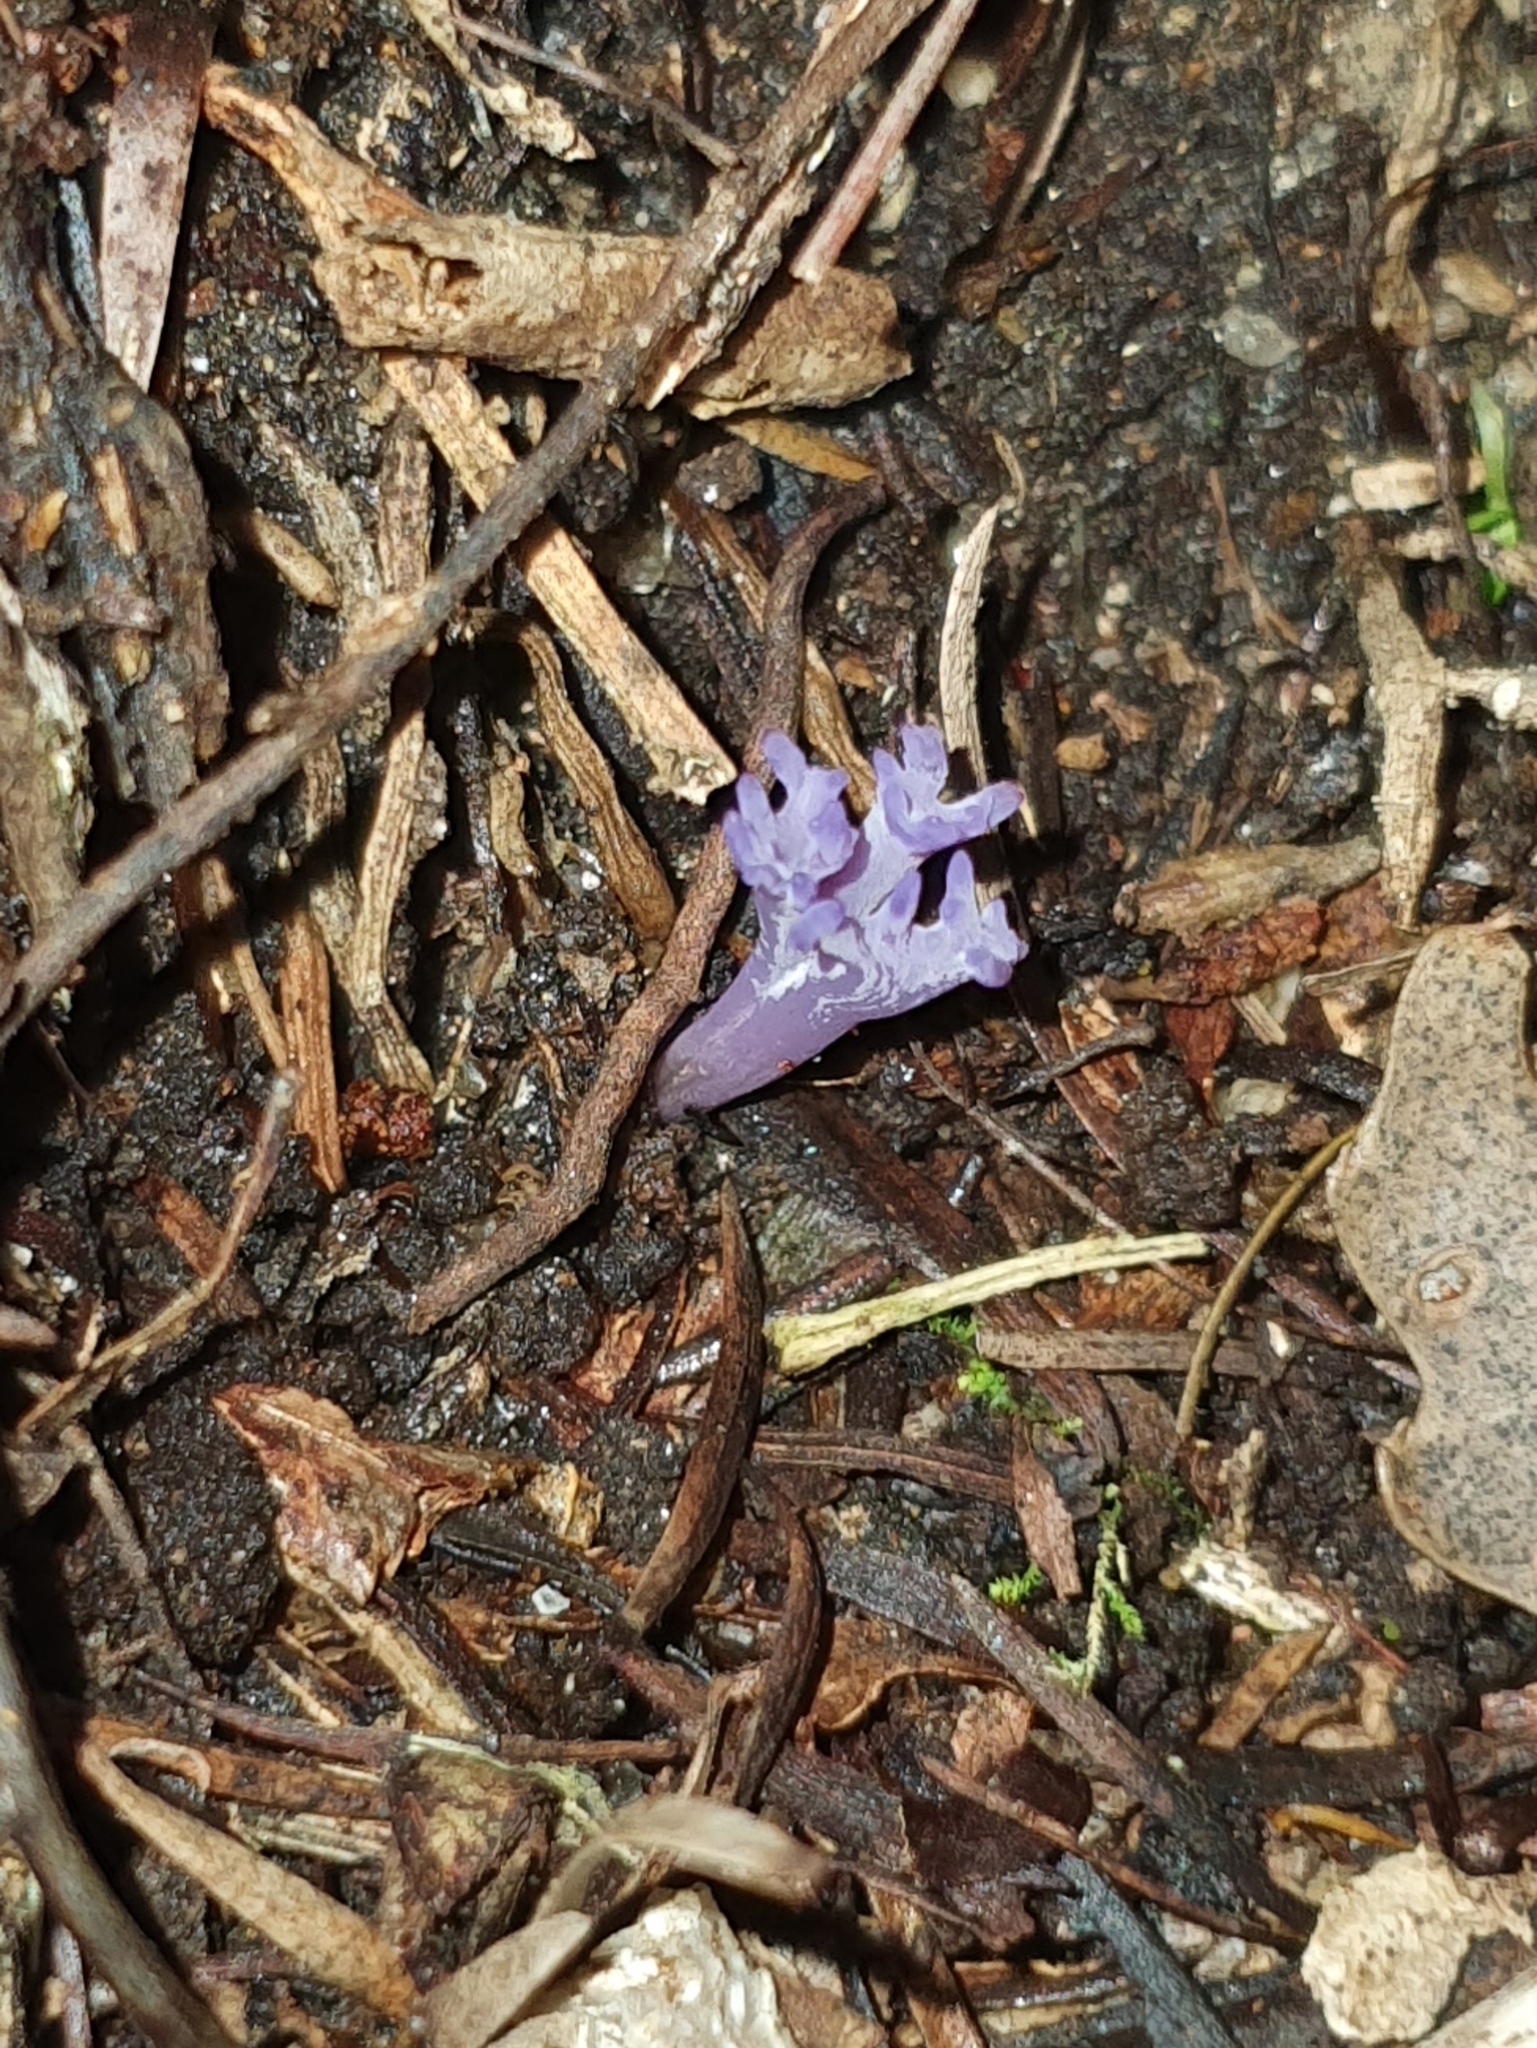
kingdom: Fungi
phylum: Basidiomycota
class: Agaricomycetes
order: Agaricales
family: Clavariaceae
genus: Ramariopsis
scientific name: Ramariopsis pulchella
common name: Lilac coral
